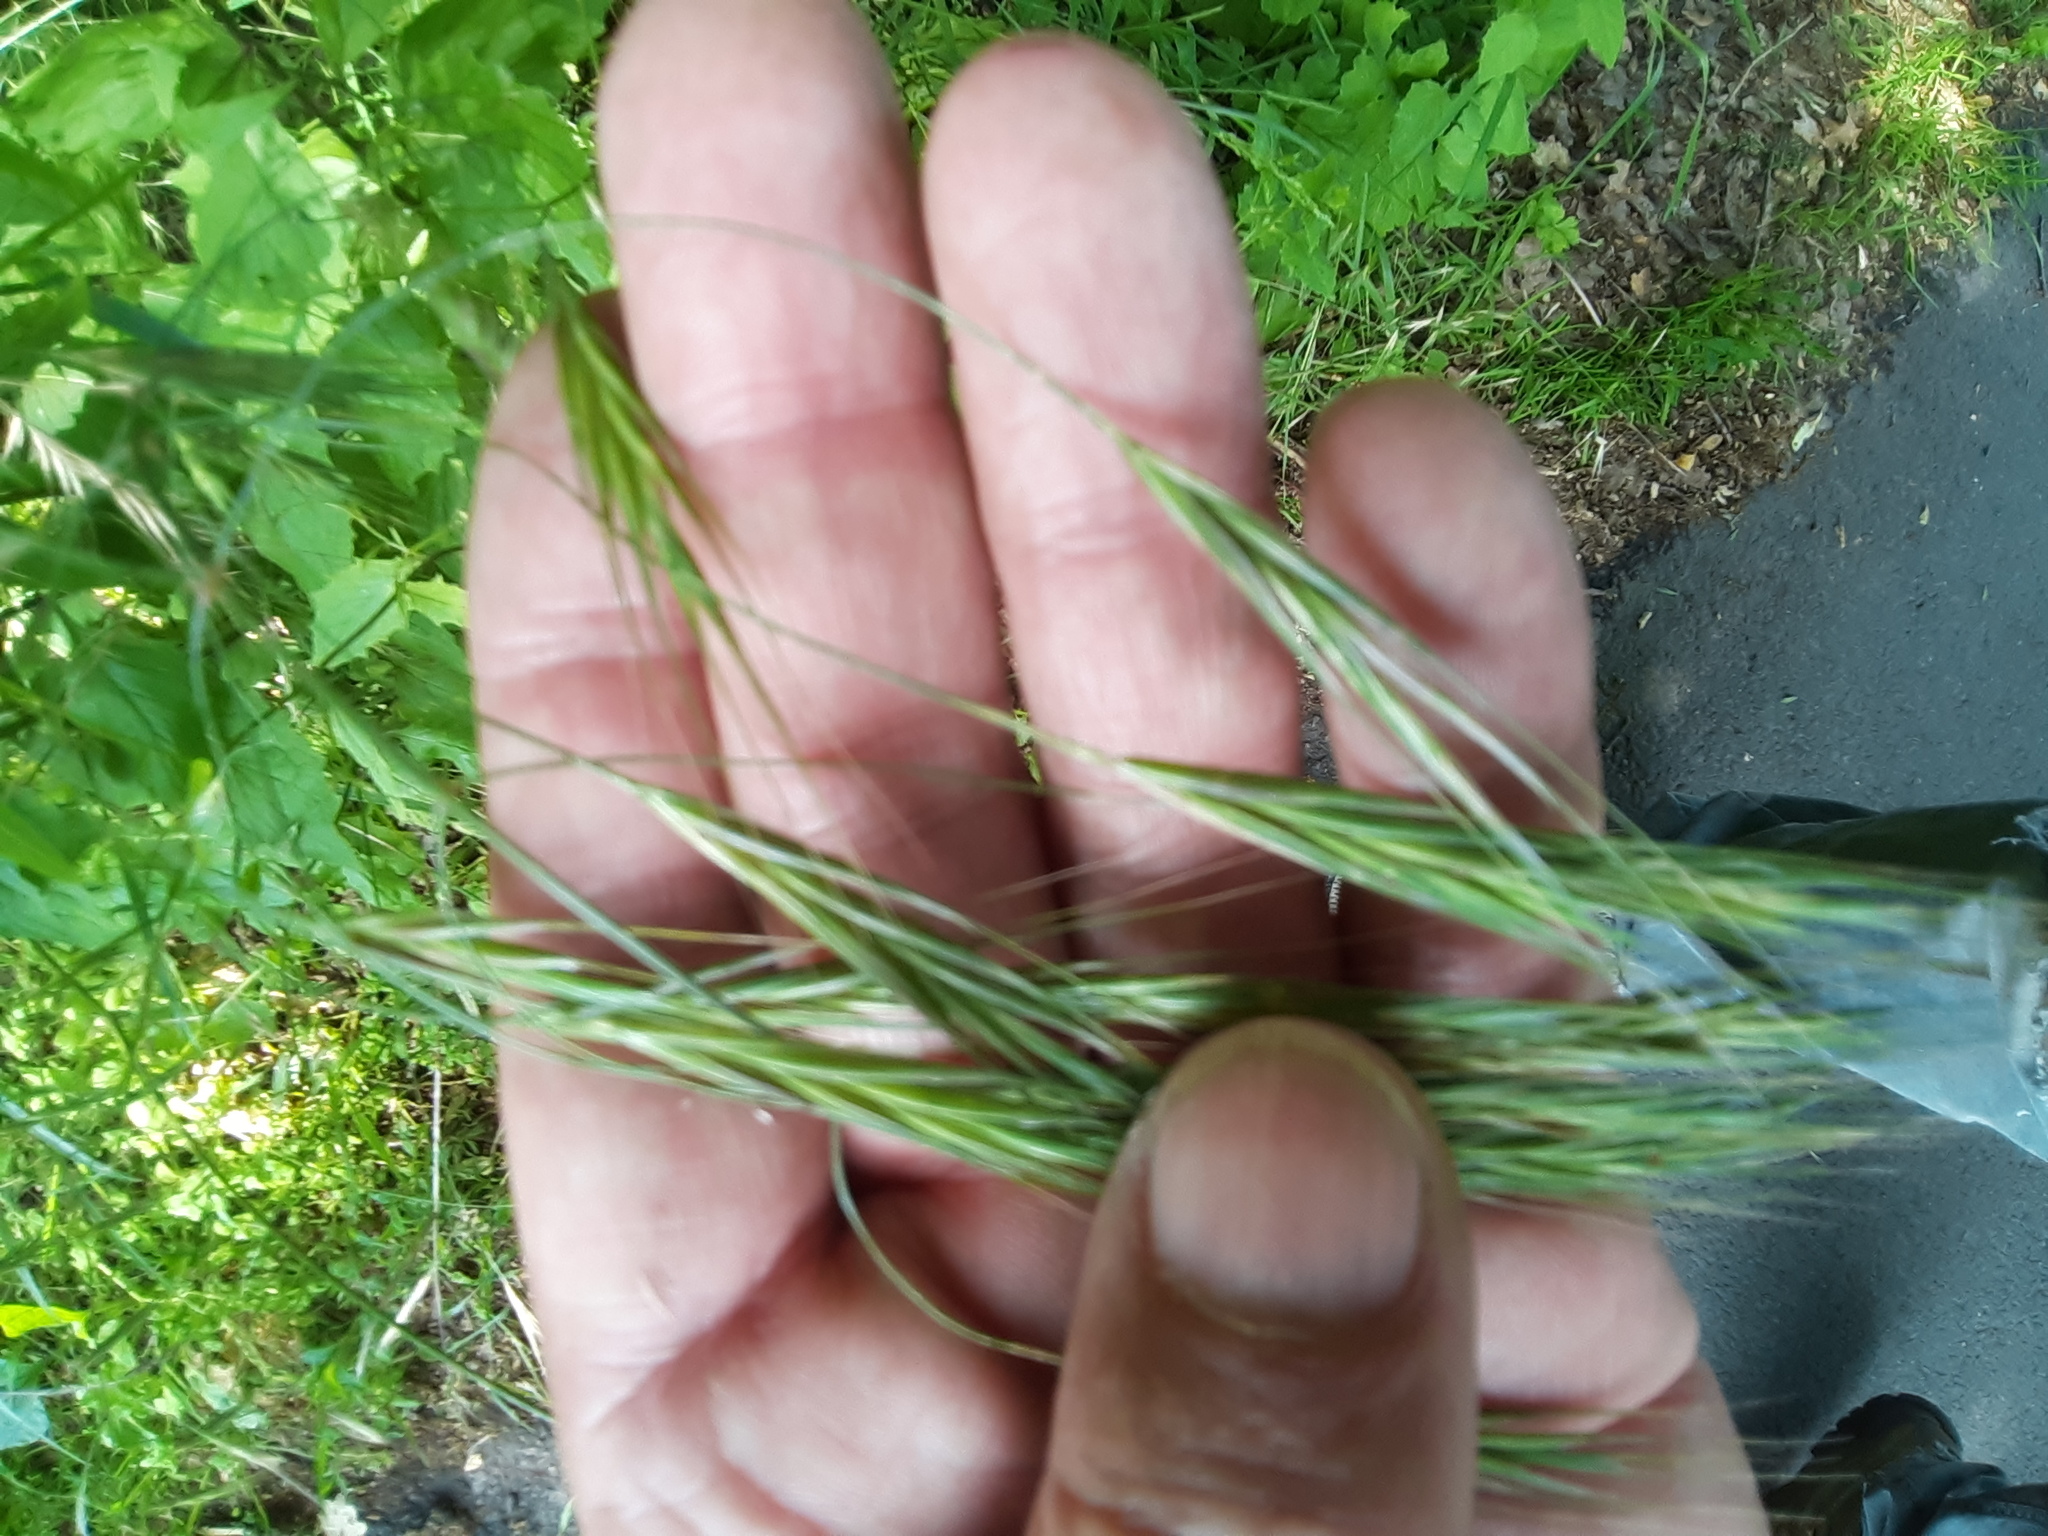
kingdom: Plantae
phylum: Tracheophyta
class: Liliopsida
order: Poales
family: Poaceae
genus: Bromus
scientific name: Bromus sterilis
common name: Poverty brome
